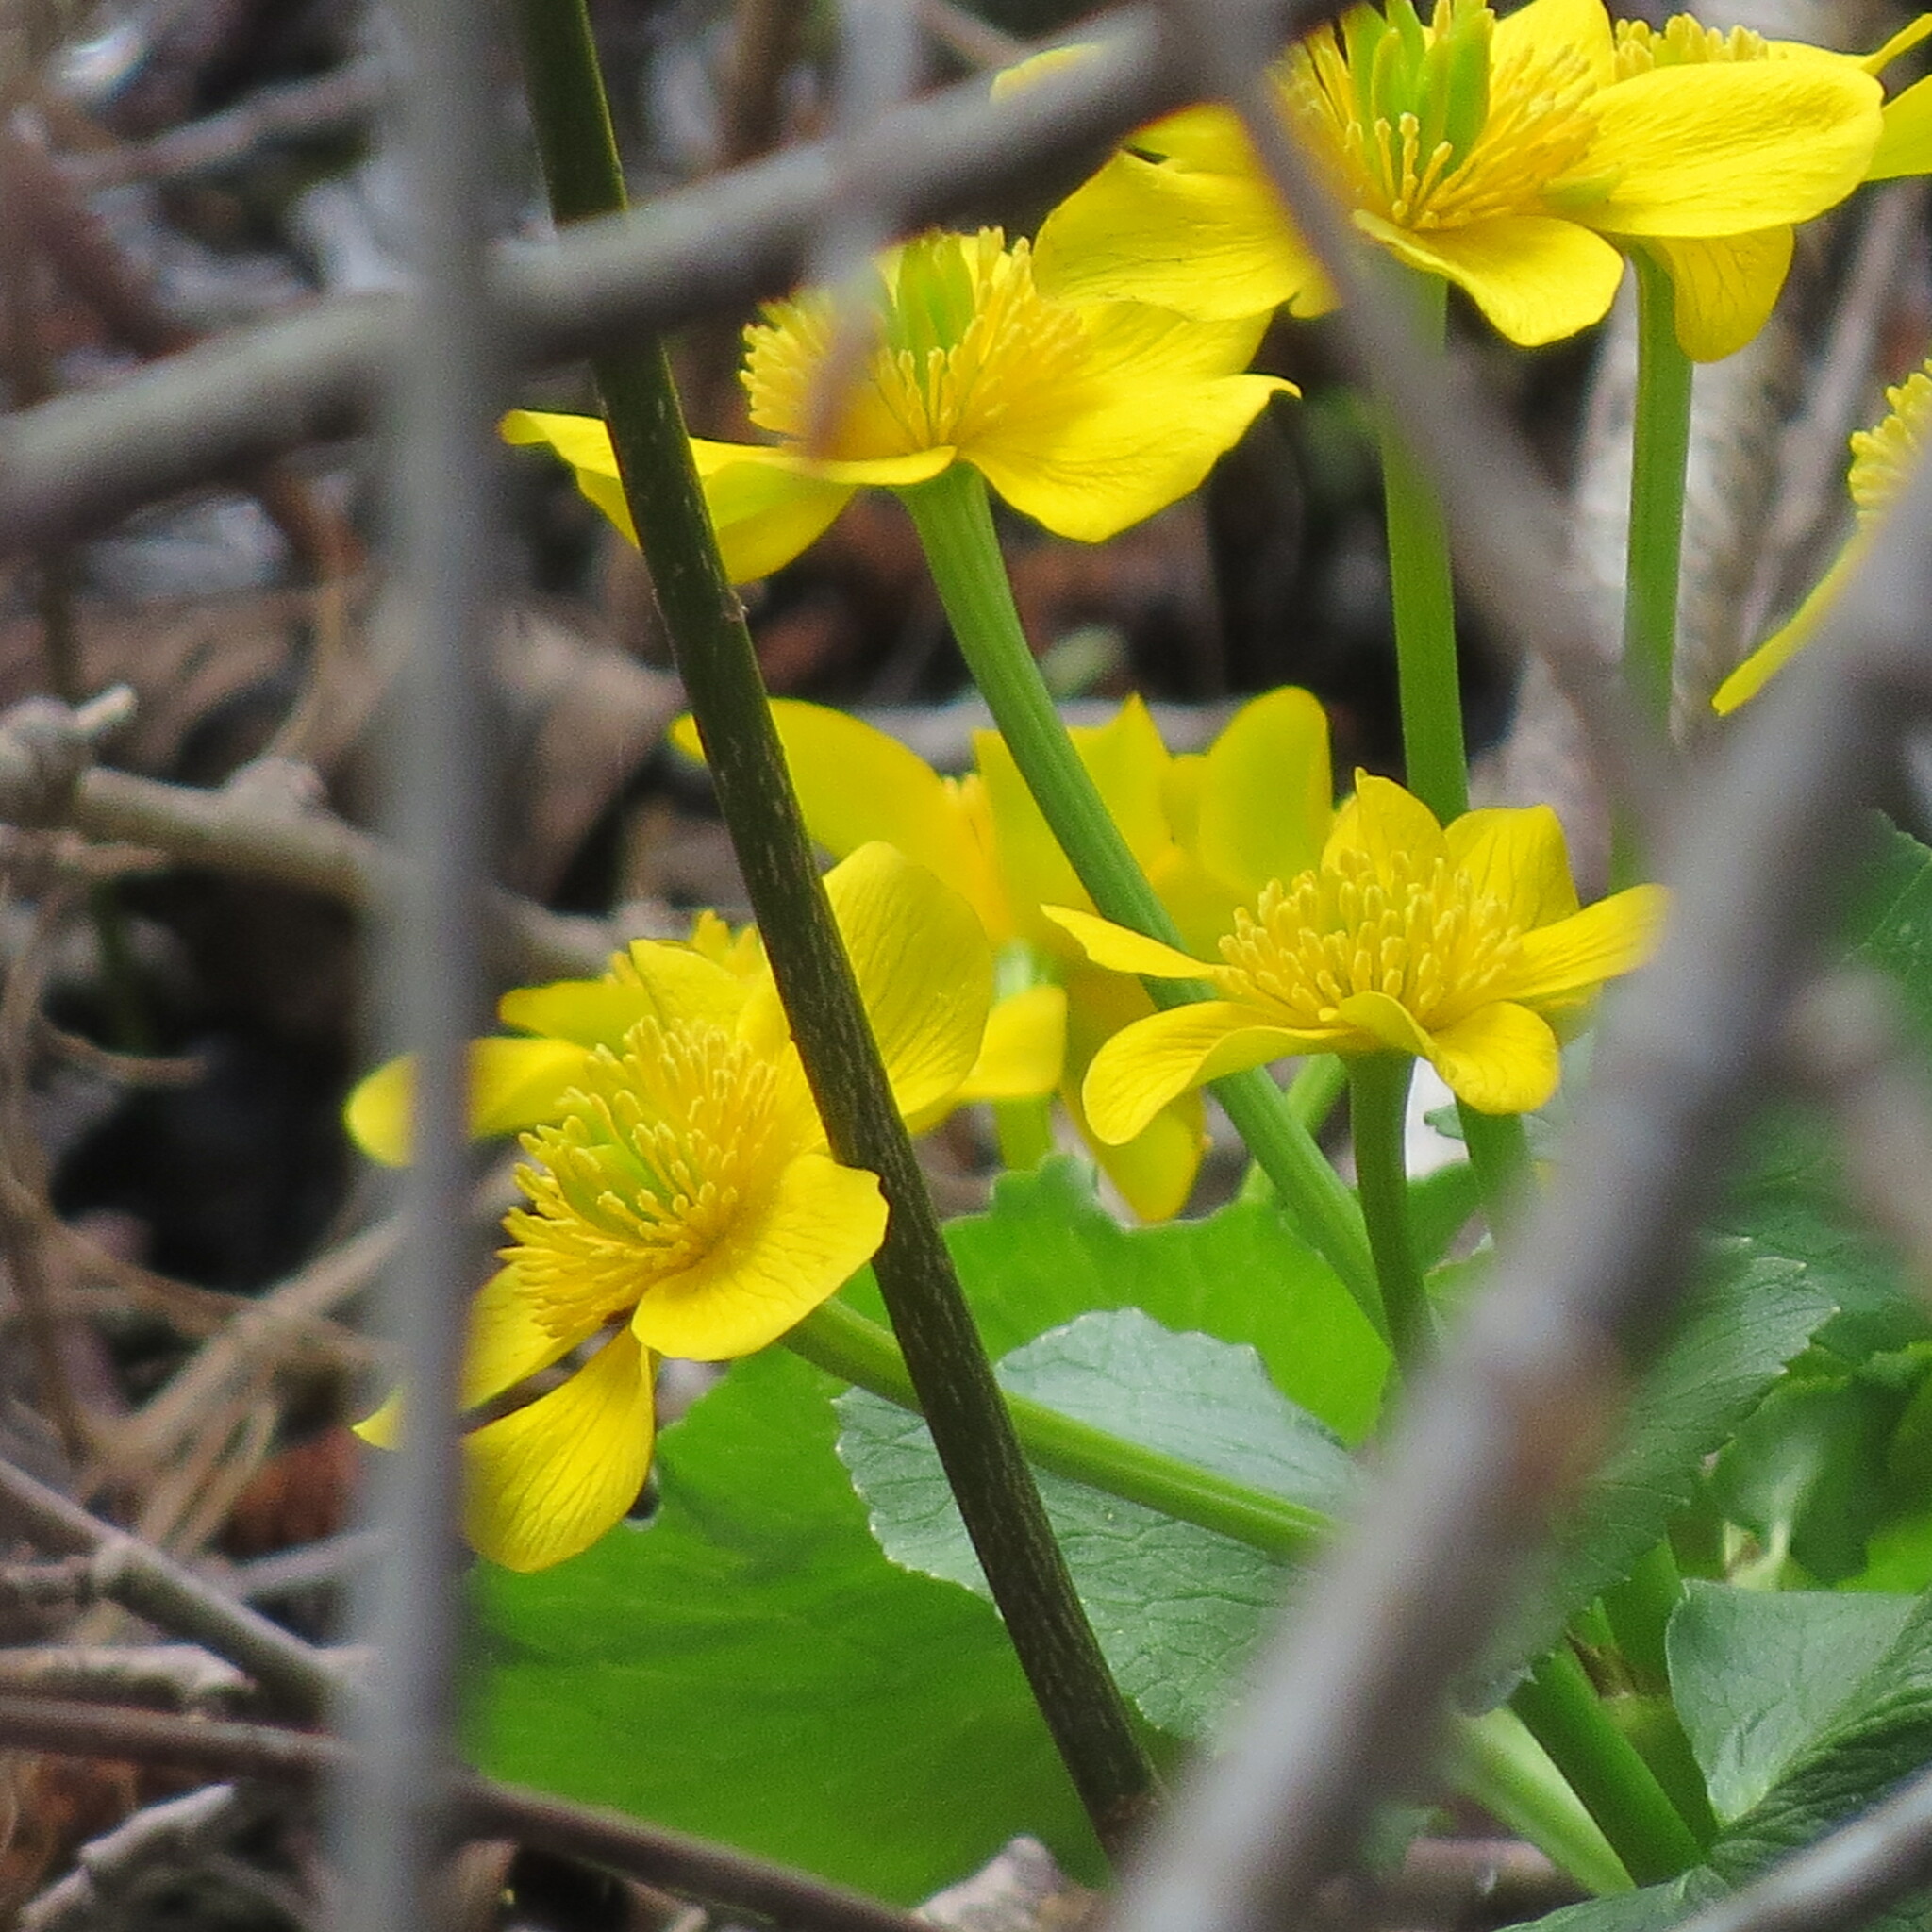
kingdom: Plantae
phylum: Tracheophyta
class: Magnoliopsida
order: Ranunculales
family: Ranunculaceae
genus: Caltha
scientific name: Caltha palustris
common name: Marsh marigold
